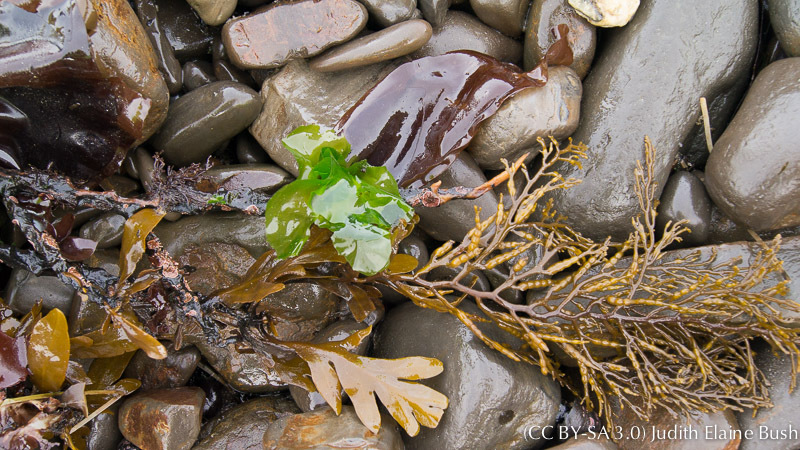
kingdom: Chromista
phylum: Ochrophyta
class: Phaeophyceae
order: Fucales
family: Sargassaceae
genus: Stephanocystis
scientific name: Stephanocystis
